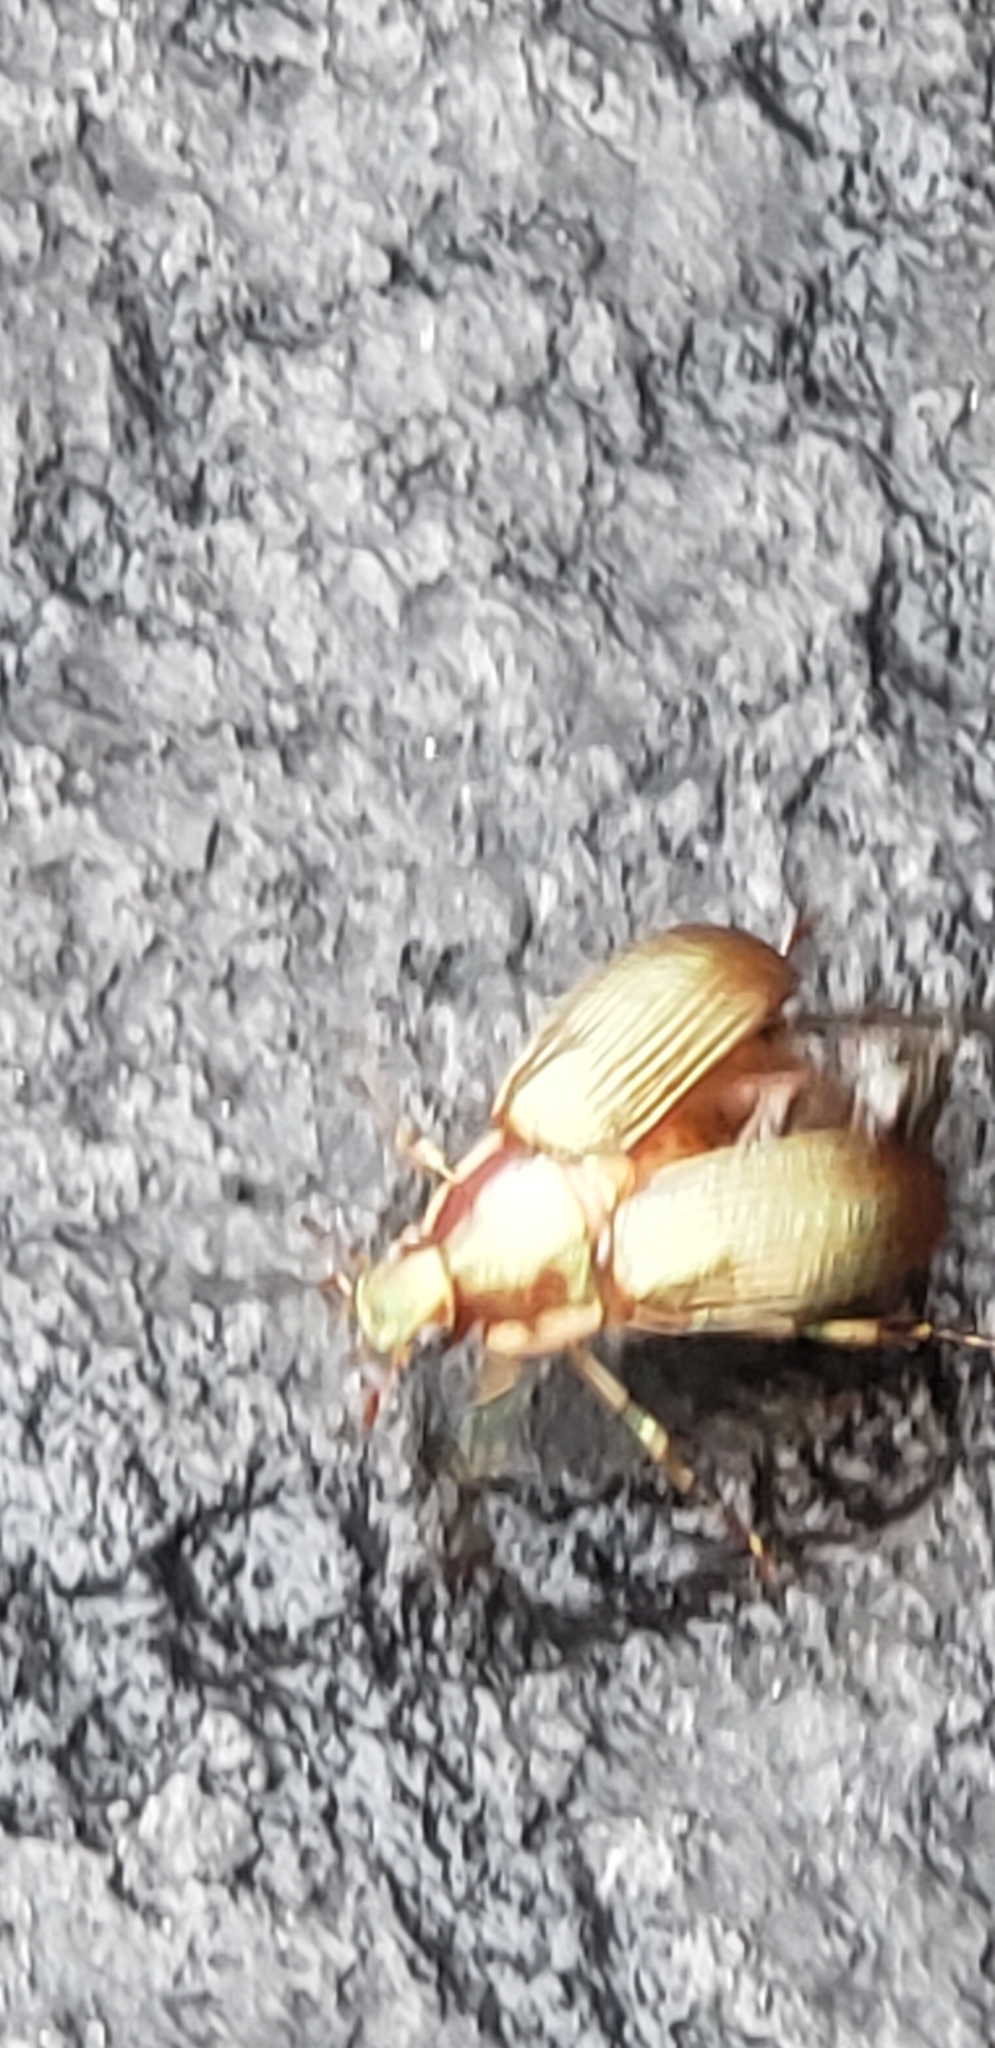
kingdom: Animalia
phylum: Arthropoda
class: Insecta
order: Coleoptera
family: Scarabaeidae
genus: Callistethus
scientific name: Callistethus marginatus
